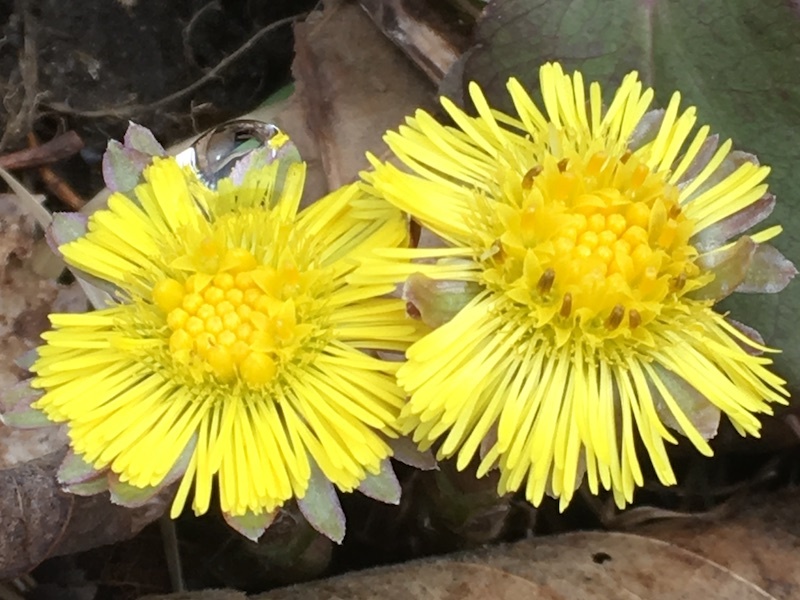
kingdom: Plantae
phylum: Tracheophyta
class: Magnoliopsida
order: Asterales
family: Asteraceae
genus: Tussilago
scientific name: Tussilago farfara
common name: Coltsfoot
